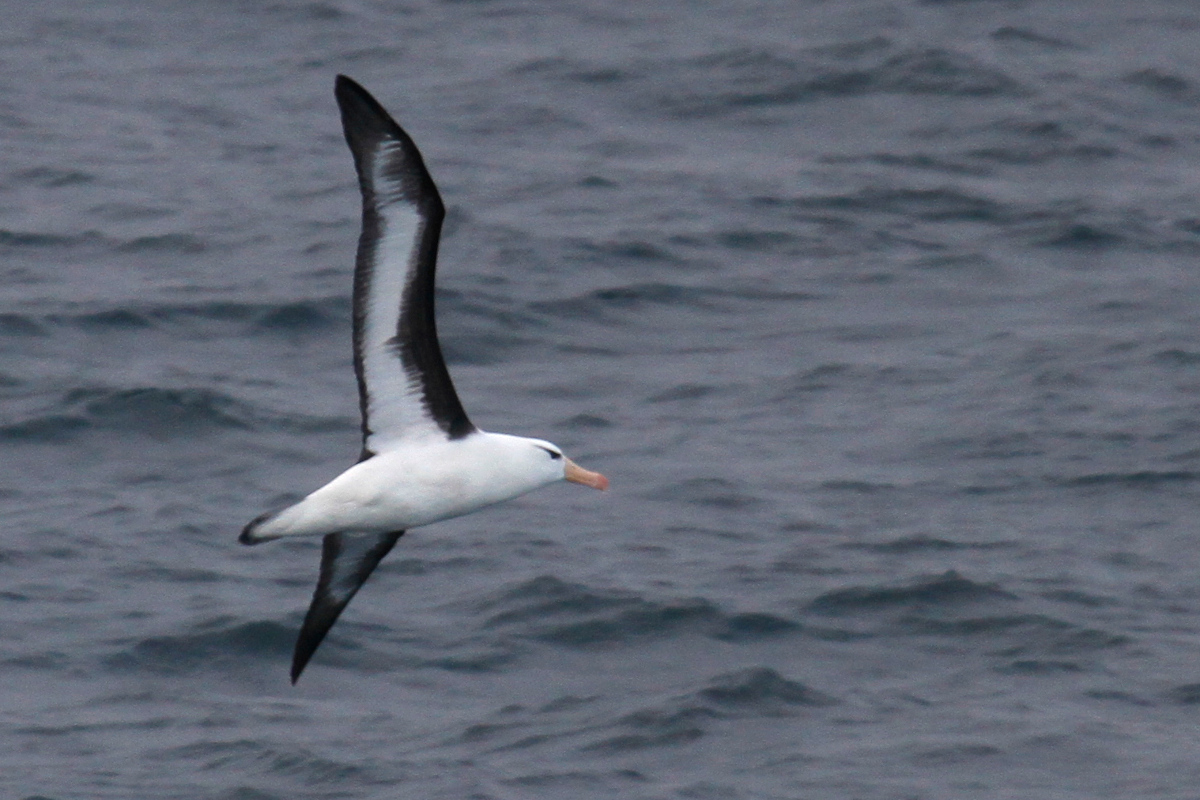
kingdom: Animalia
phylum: Chordata
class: Aves
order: Procellariiformes
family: Diomedeidae
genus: Thalassarche
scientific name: Thalassarche melanophris
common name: Black-browed albatross
